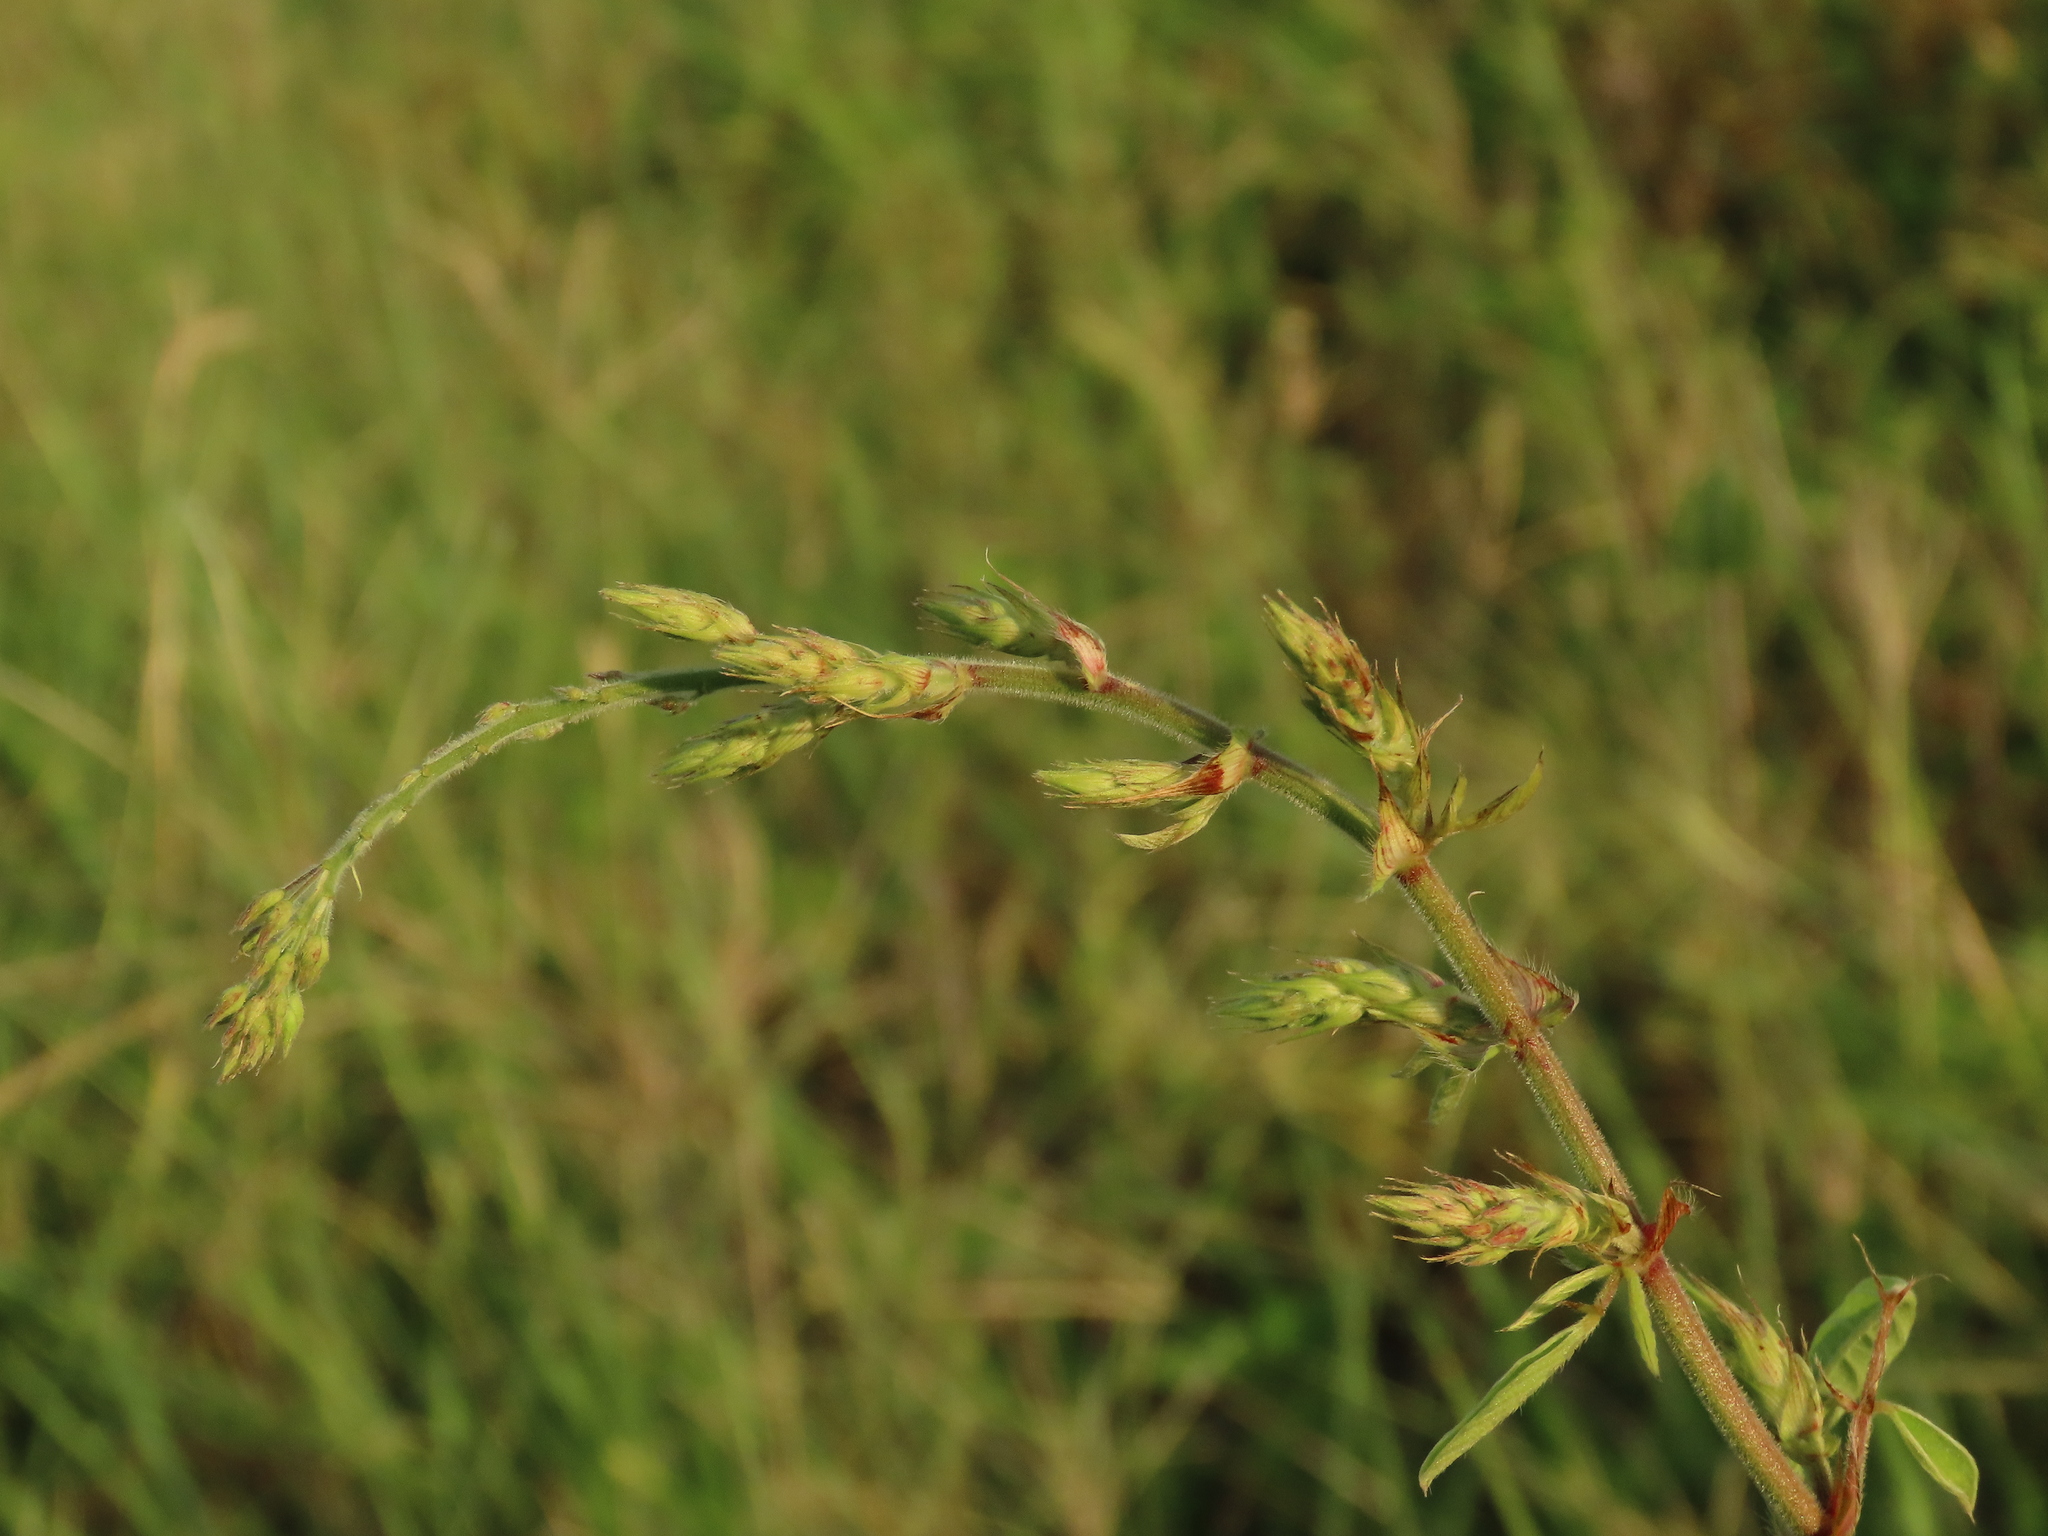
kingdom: Plantae
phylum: Tracheophyta
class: Magnoliopsida
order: Fabales
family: Fabaceae
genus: Desmodium
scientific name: Desmodium tortuosum
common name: Dixie ticktrefoil
